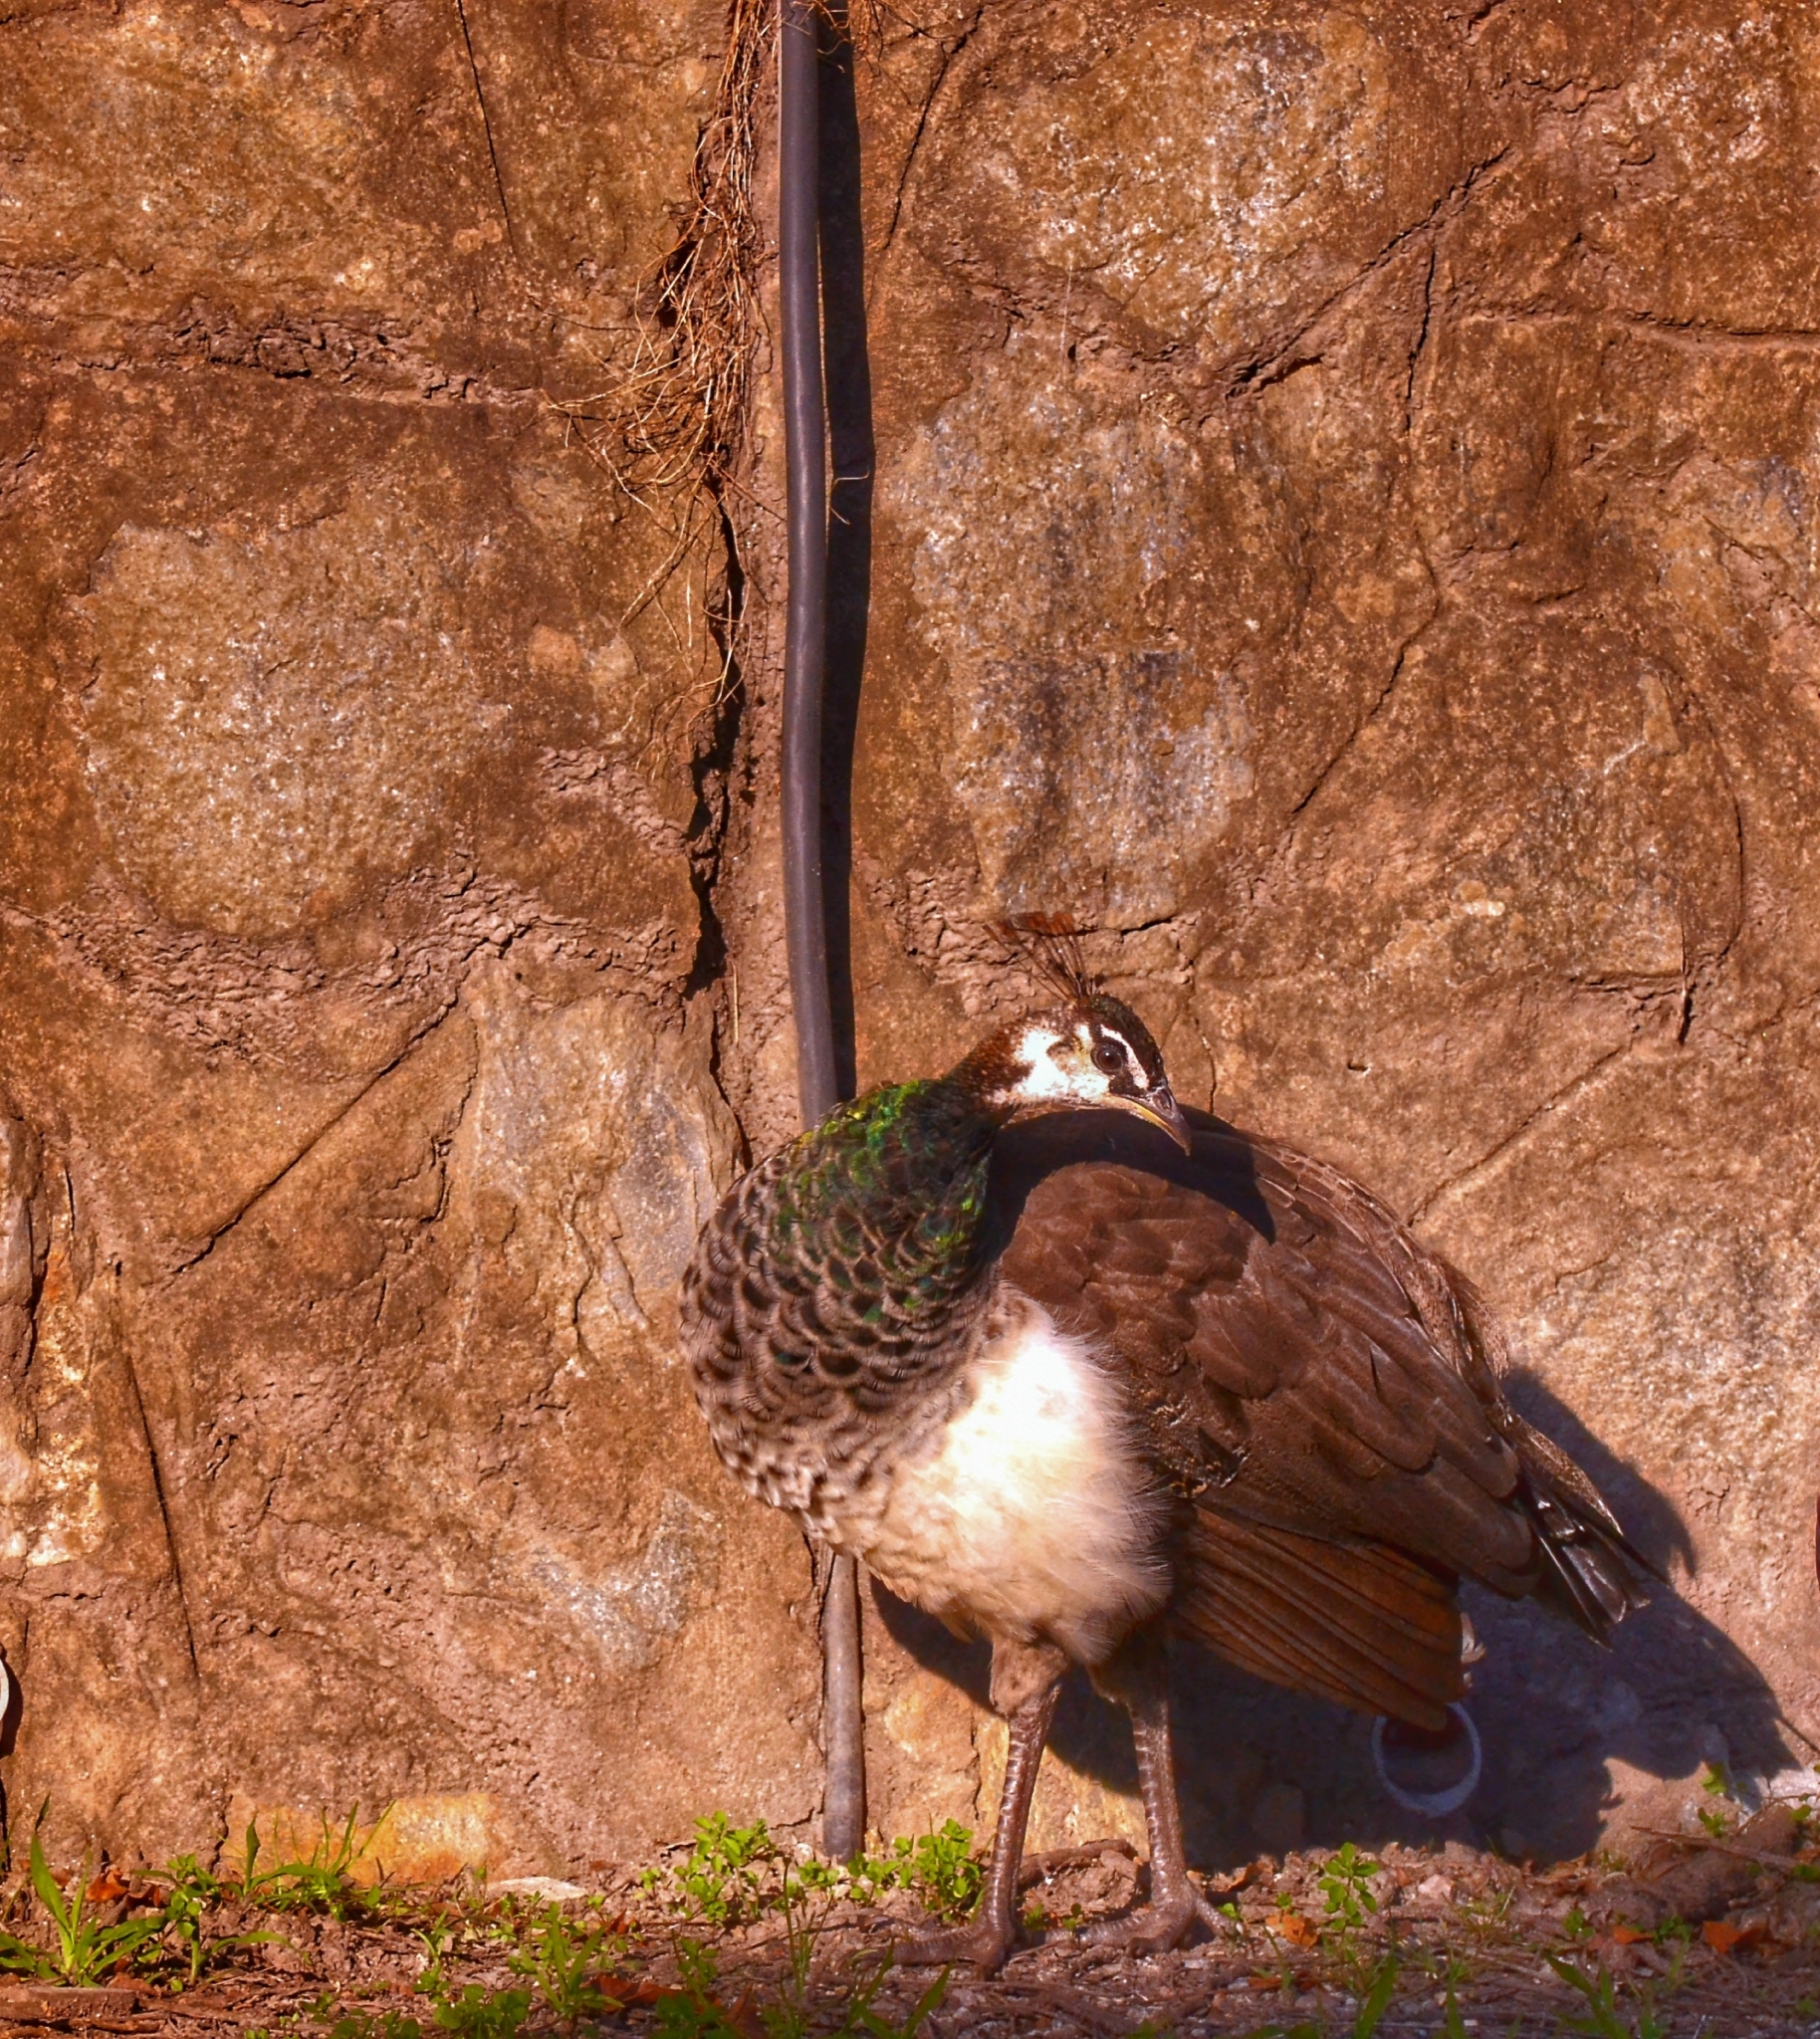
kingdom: Animalia
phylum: Chordata
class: Aves
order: Galliformes
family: Phasianidae
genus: Pavo
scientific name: Pavo cristatus
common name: Indian peafowl
